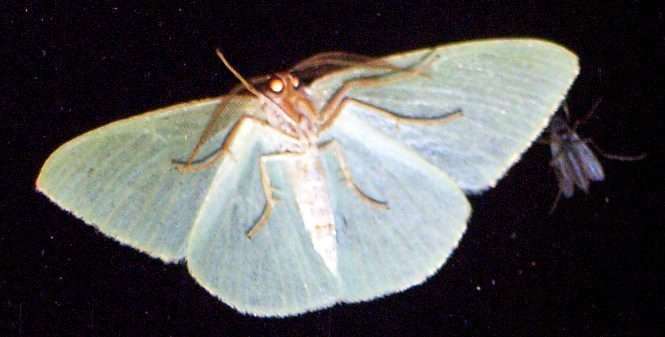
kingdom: Animalia
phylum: Arthropoda
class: Insecta
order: Lepidoptera
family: Geometridae
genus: Chlorocoma
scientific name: Chlorocoma carenaria
